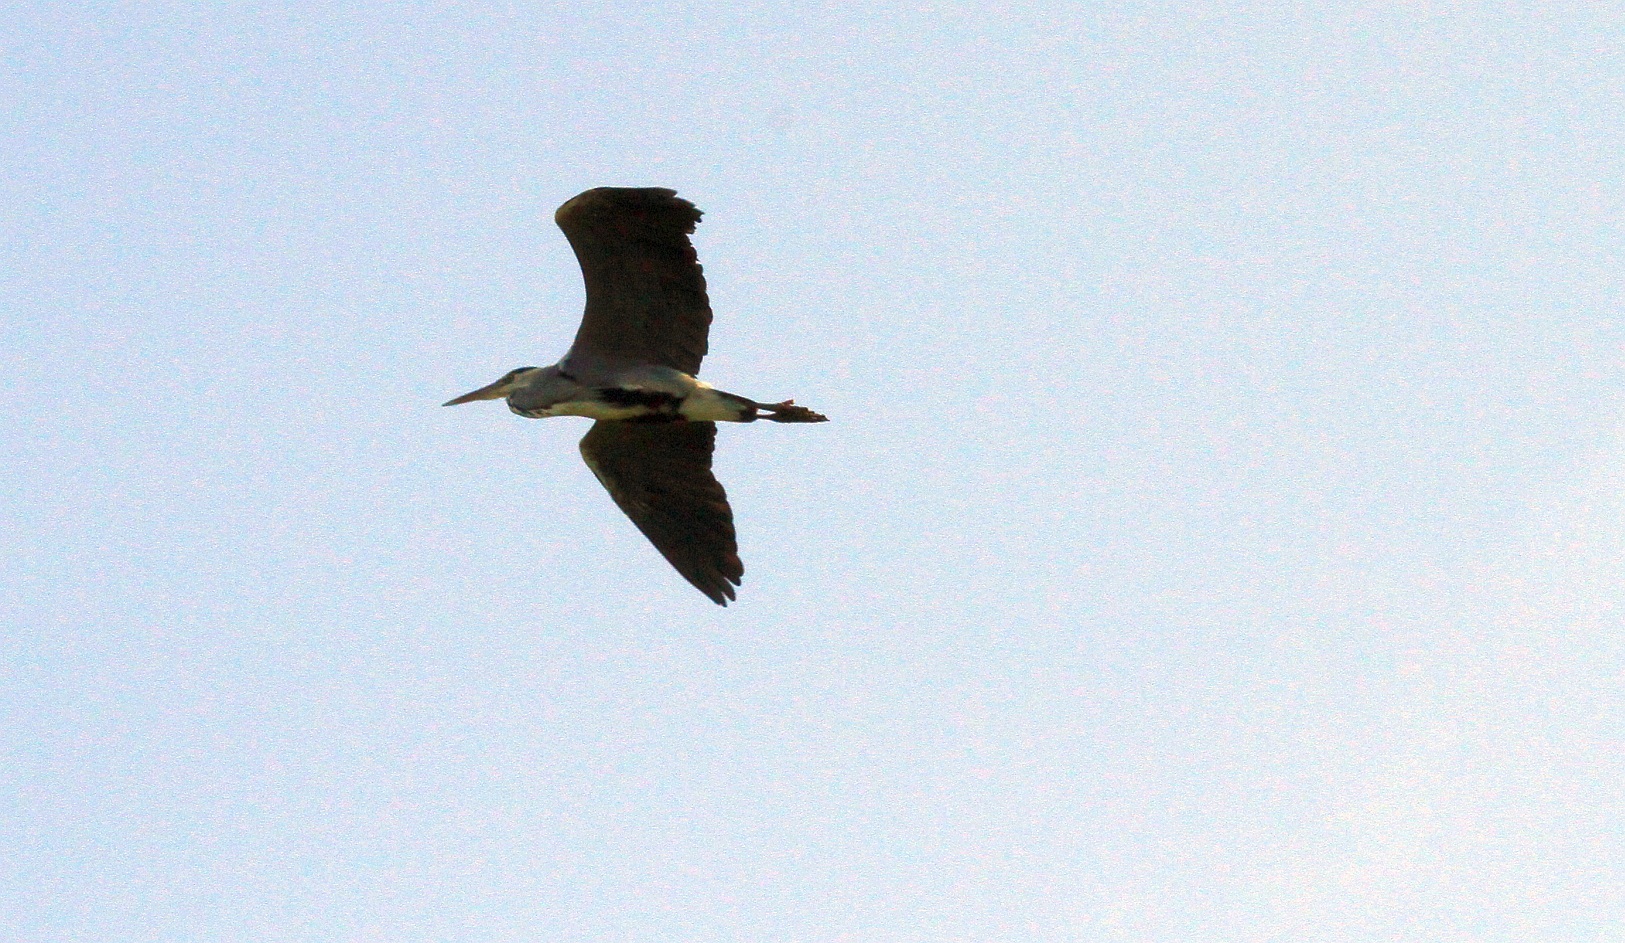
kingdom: Animalia
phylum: Chordata
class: Aves
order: Pelecaniformes
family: Ardeidae
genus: Ardea
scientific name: Ardea cinerea
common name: Grey heron
